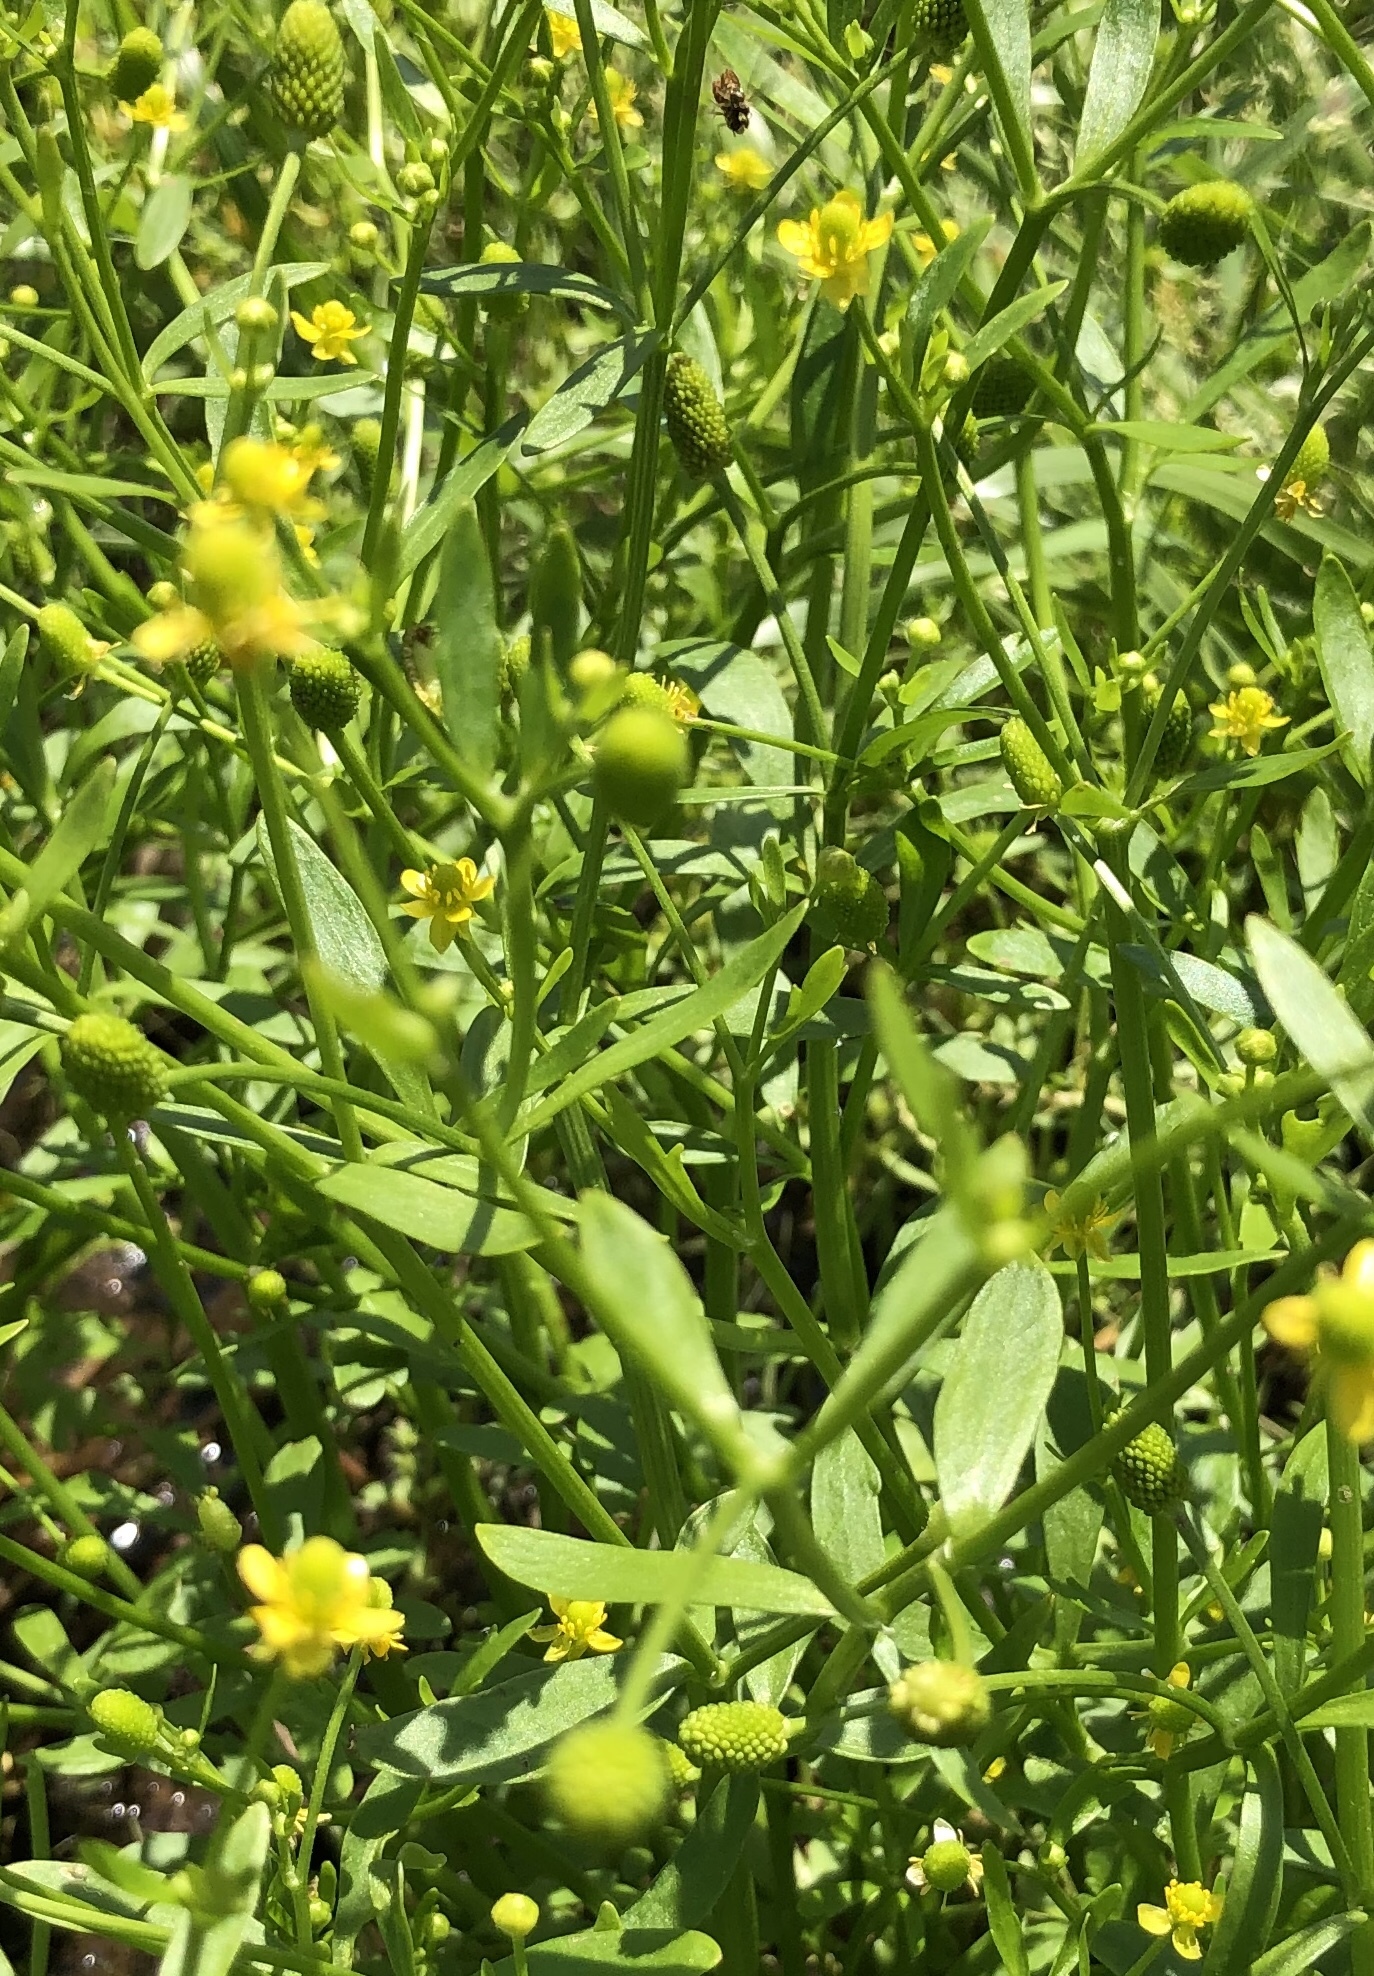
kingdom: Plantae
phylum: Tracheophyta
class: Magnoliopsida
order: Ranunculales
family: Ranunculaceae
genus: Ranunculus
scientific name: Ranunculus sceleratus
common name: Celery-leaved buttercup
